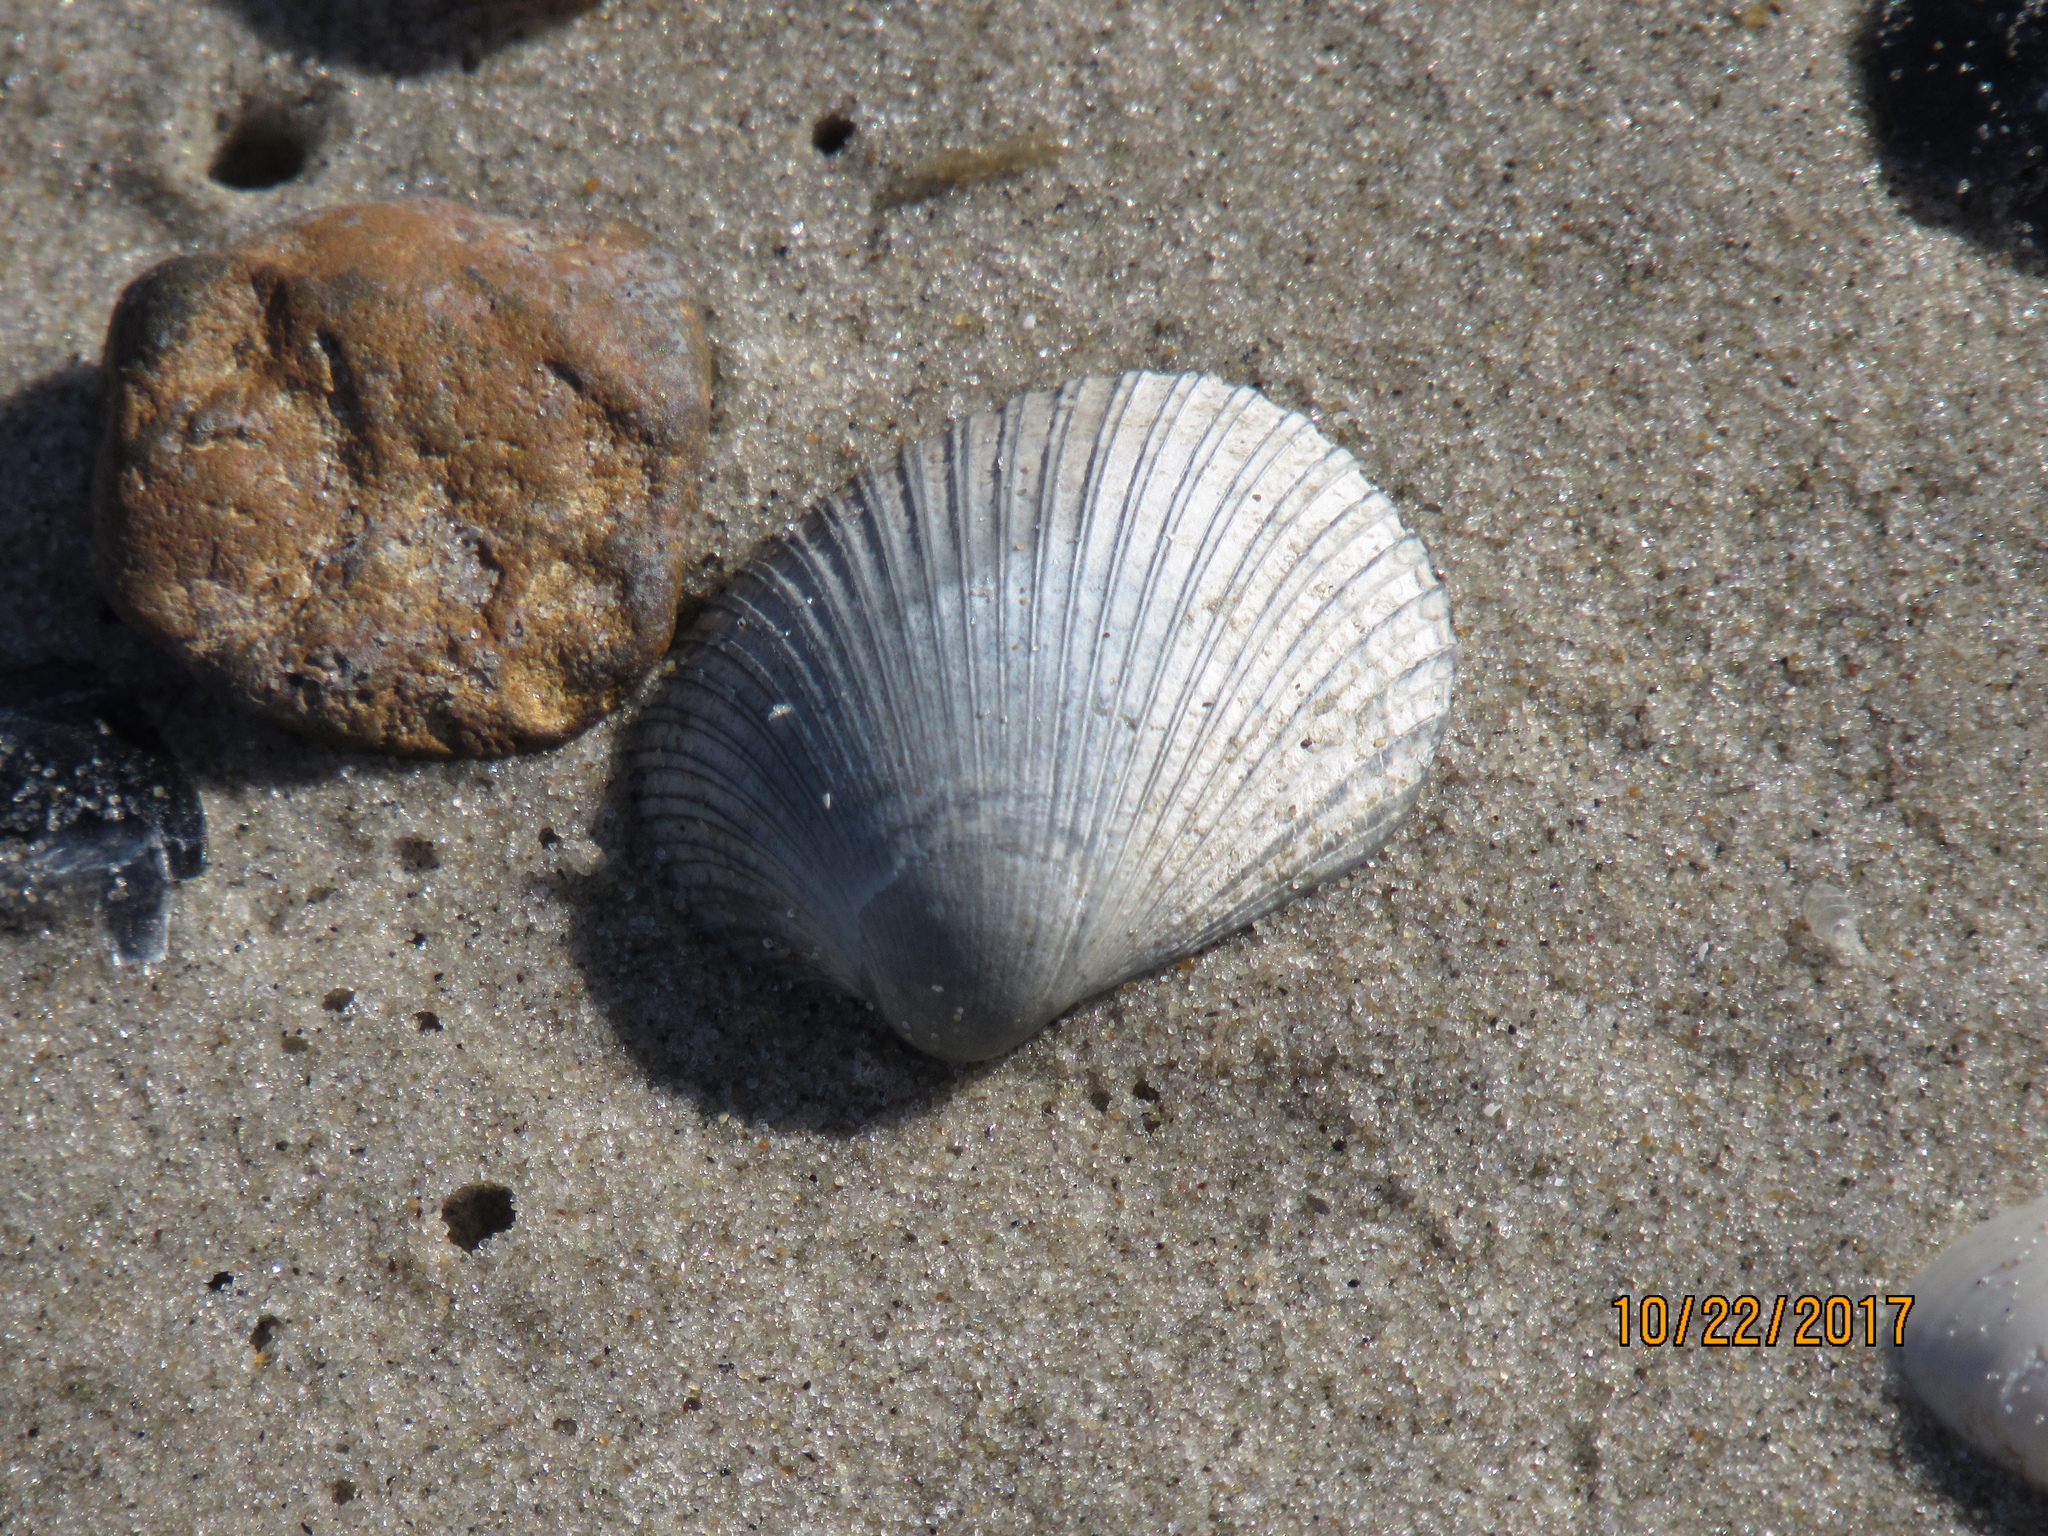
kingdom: Animalia
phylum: Mollusca
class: Bivalvia
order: Arcida
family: Arcidae
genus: Lunarca
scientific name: Lunarca ovalis
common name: Blood ark
